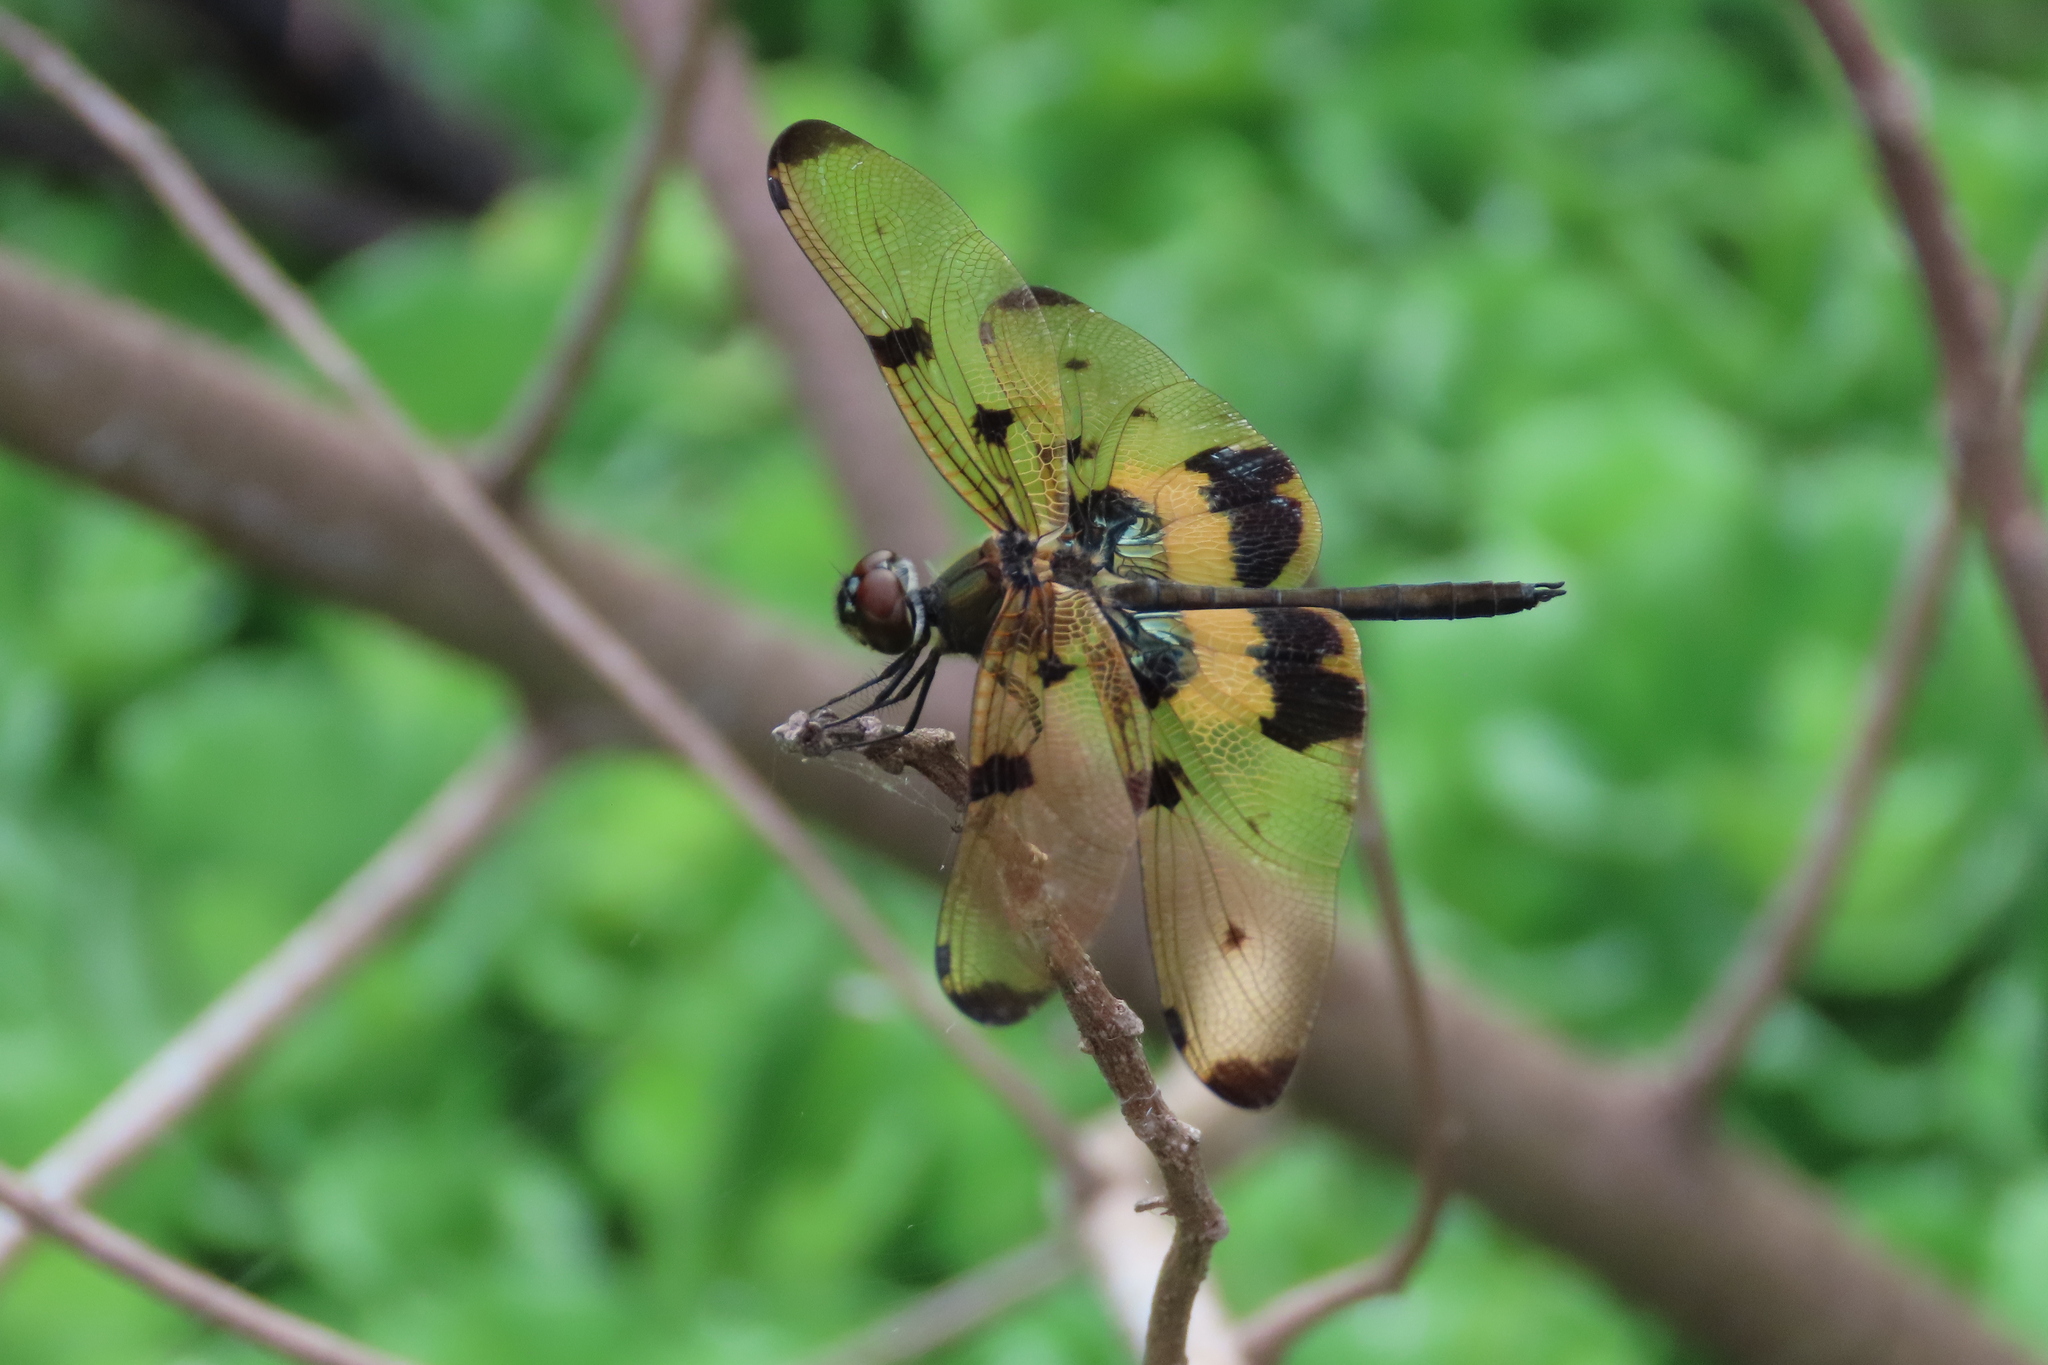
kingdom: Animalia
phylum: Arthropoda
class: Insecta
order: Odonata
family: Libellulidae
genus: Rhyothemis
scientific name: Rhyothemis variegata
